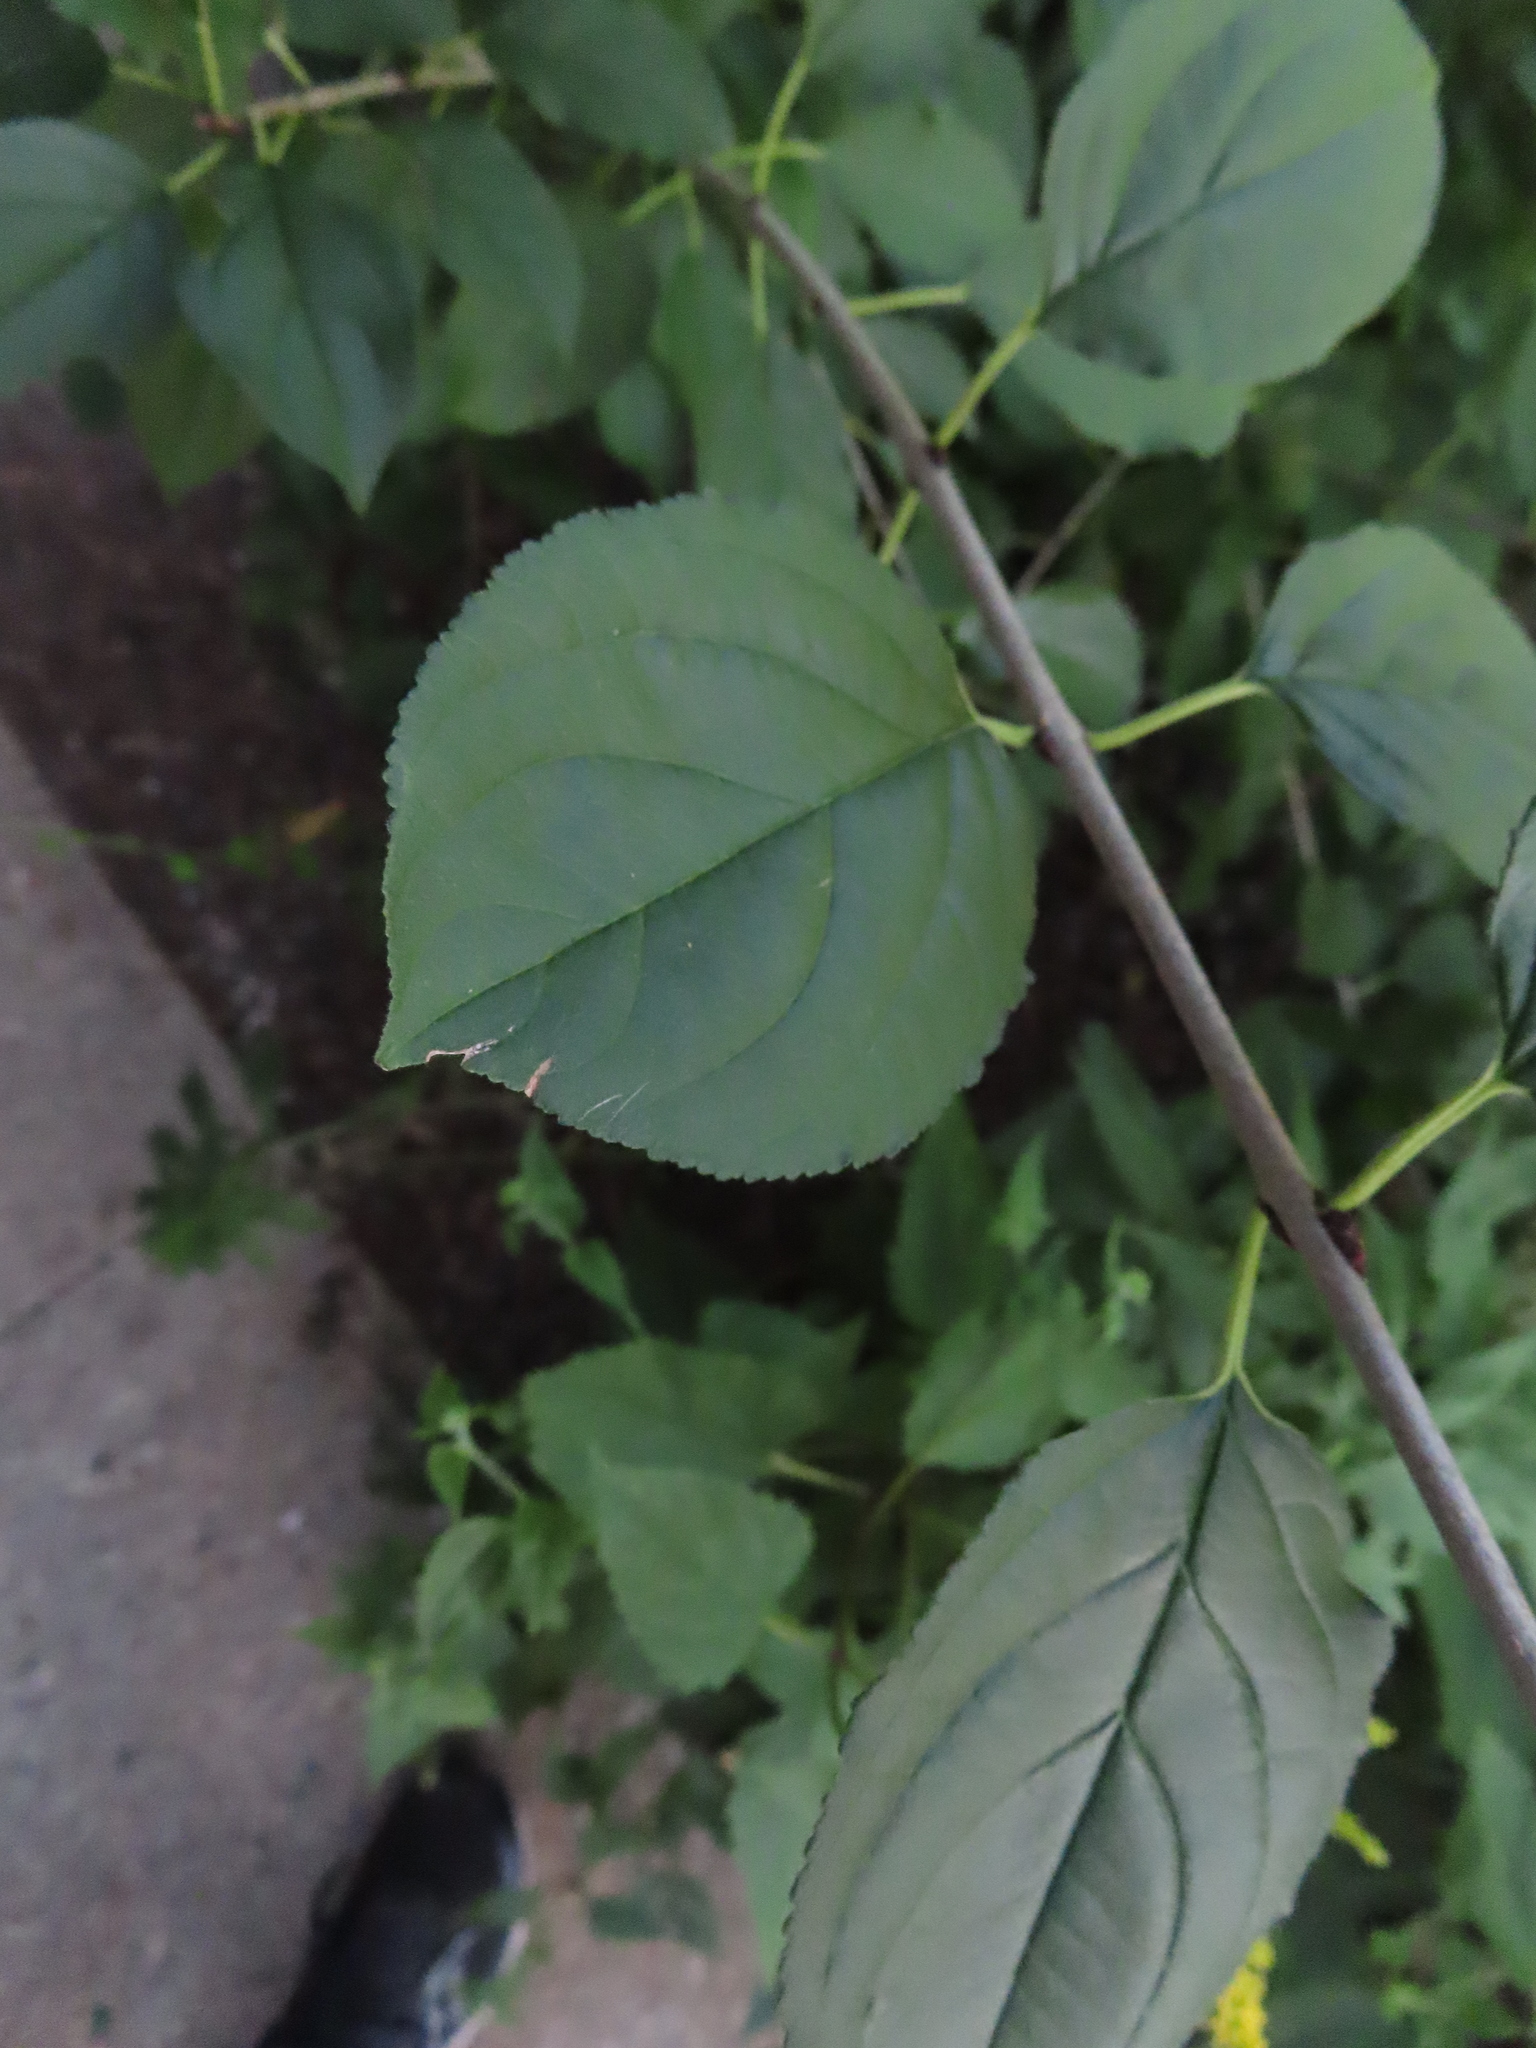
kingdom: Plantae
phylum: Tracheophyta
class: Magnoliopsida
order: Rosales
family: Rhamnaceae
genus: Rhamnus
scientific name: Rhamnus cathartica
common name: Common buckthorn
